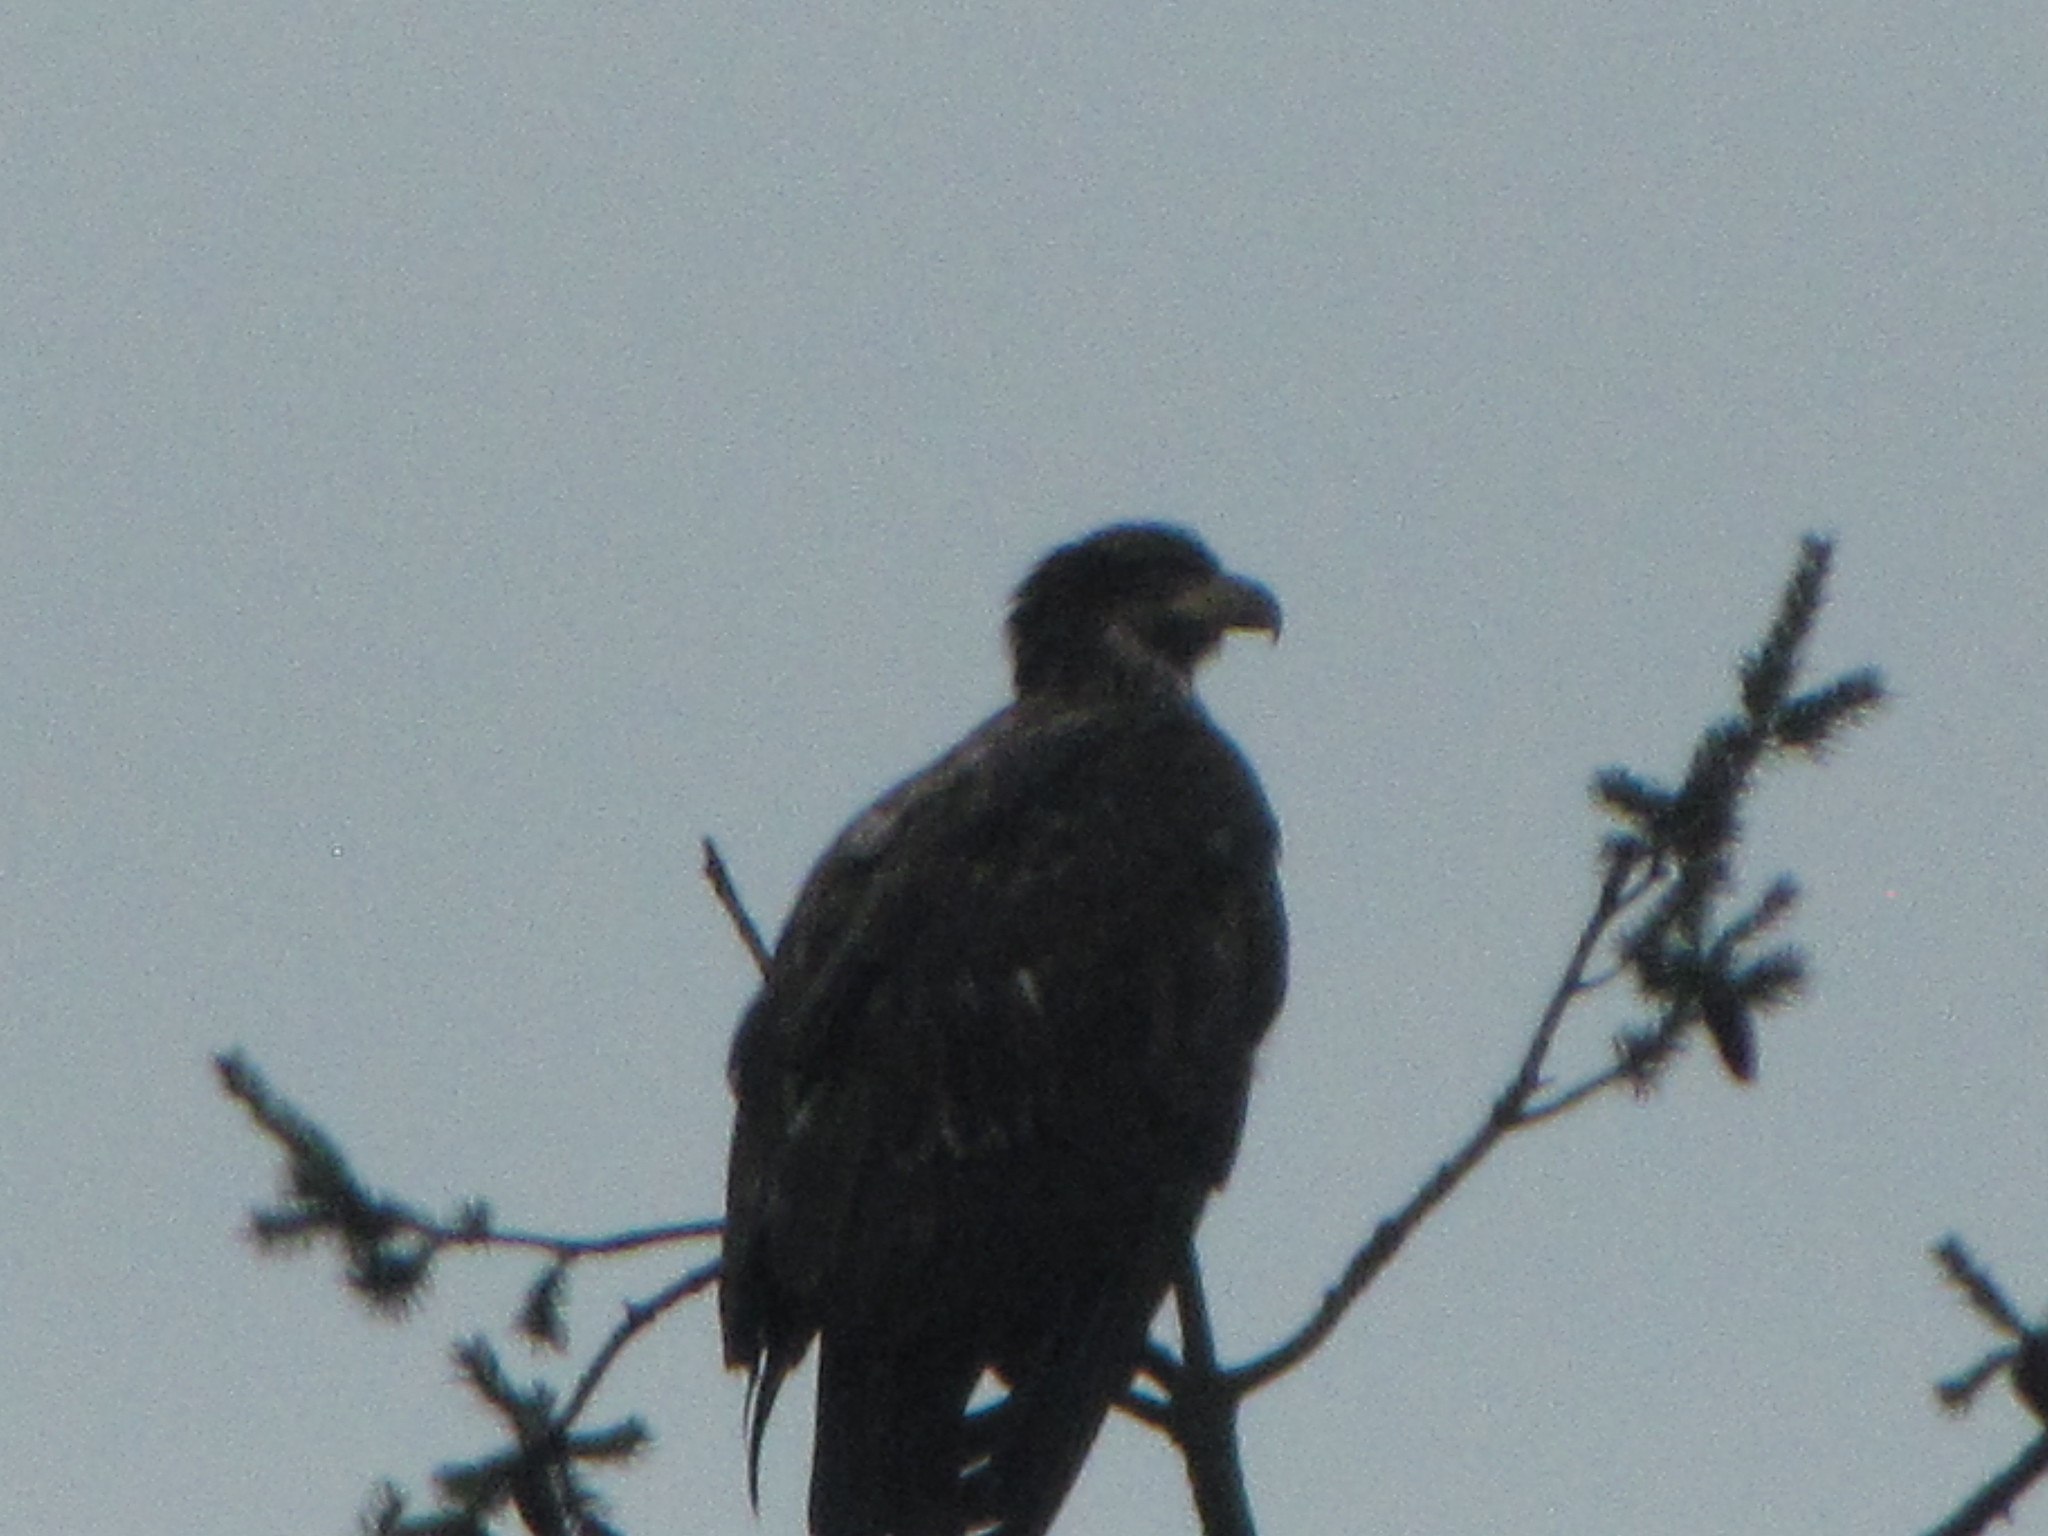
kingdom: Animalia
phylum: Chordata
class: Aves
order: Accipitriformes
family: Accipitridae
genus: Haliaeetus
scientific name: Haliaeetus leucocephalus
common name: Bald eagle
